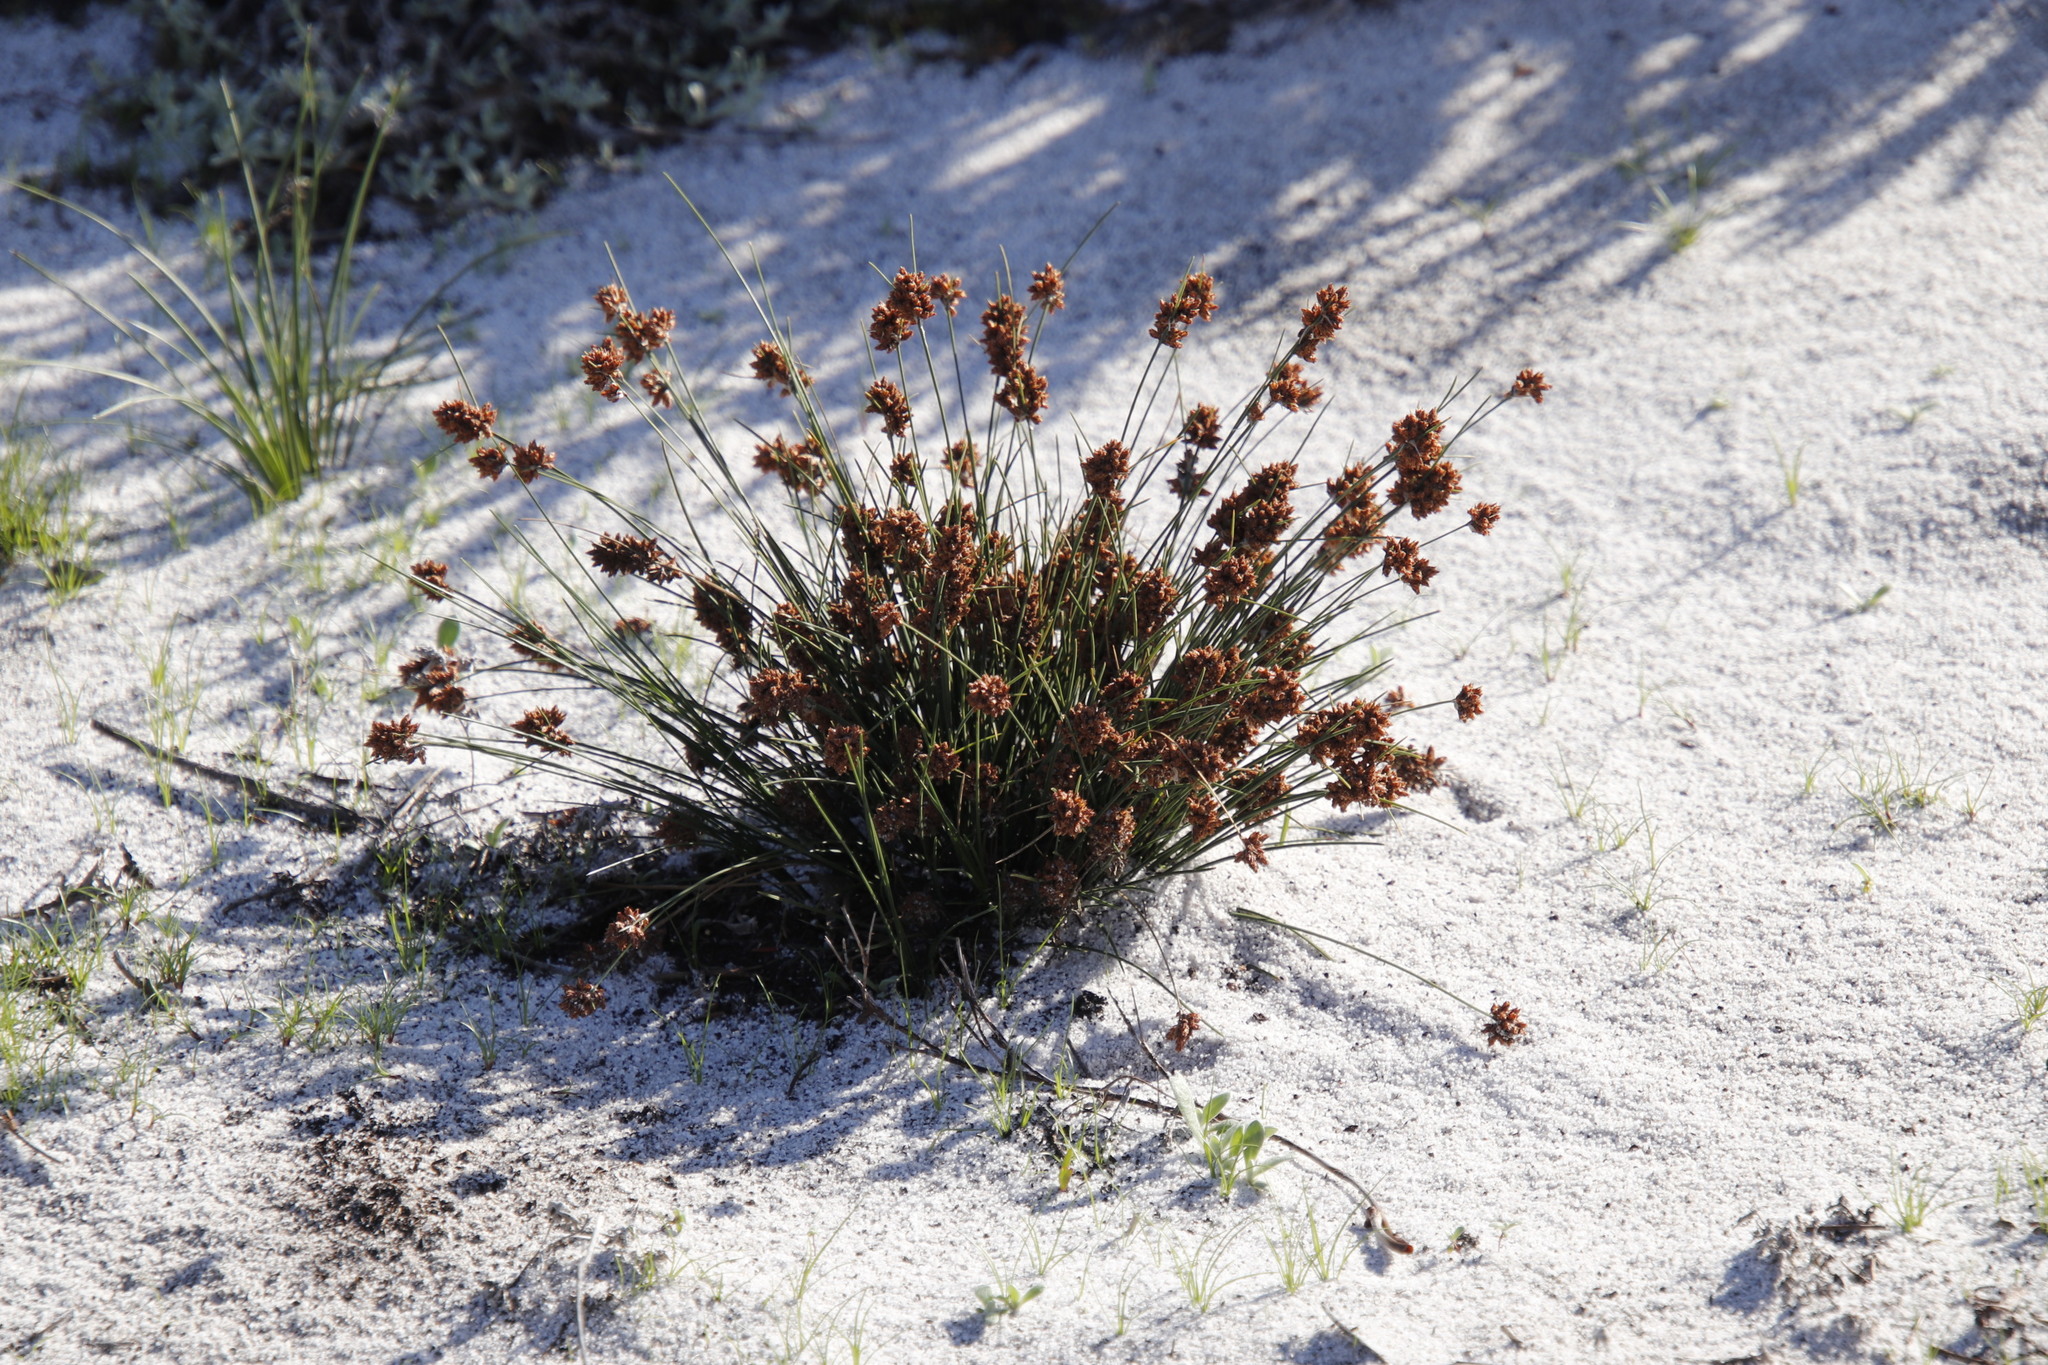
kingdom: Plantae
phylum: Tracheophyta
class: Liliopsida
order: Poales
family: Cyperaceae
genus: Ficinia
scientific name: Ficinia bulbosa
